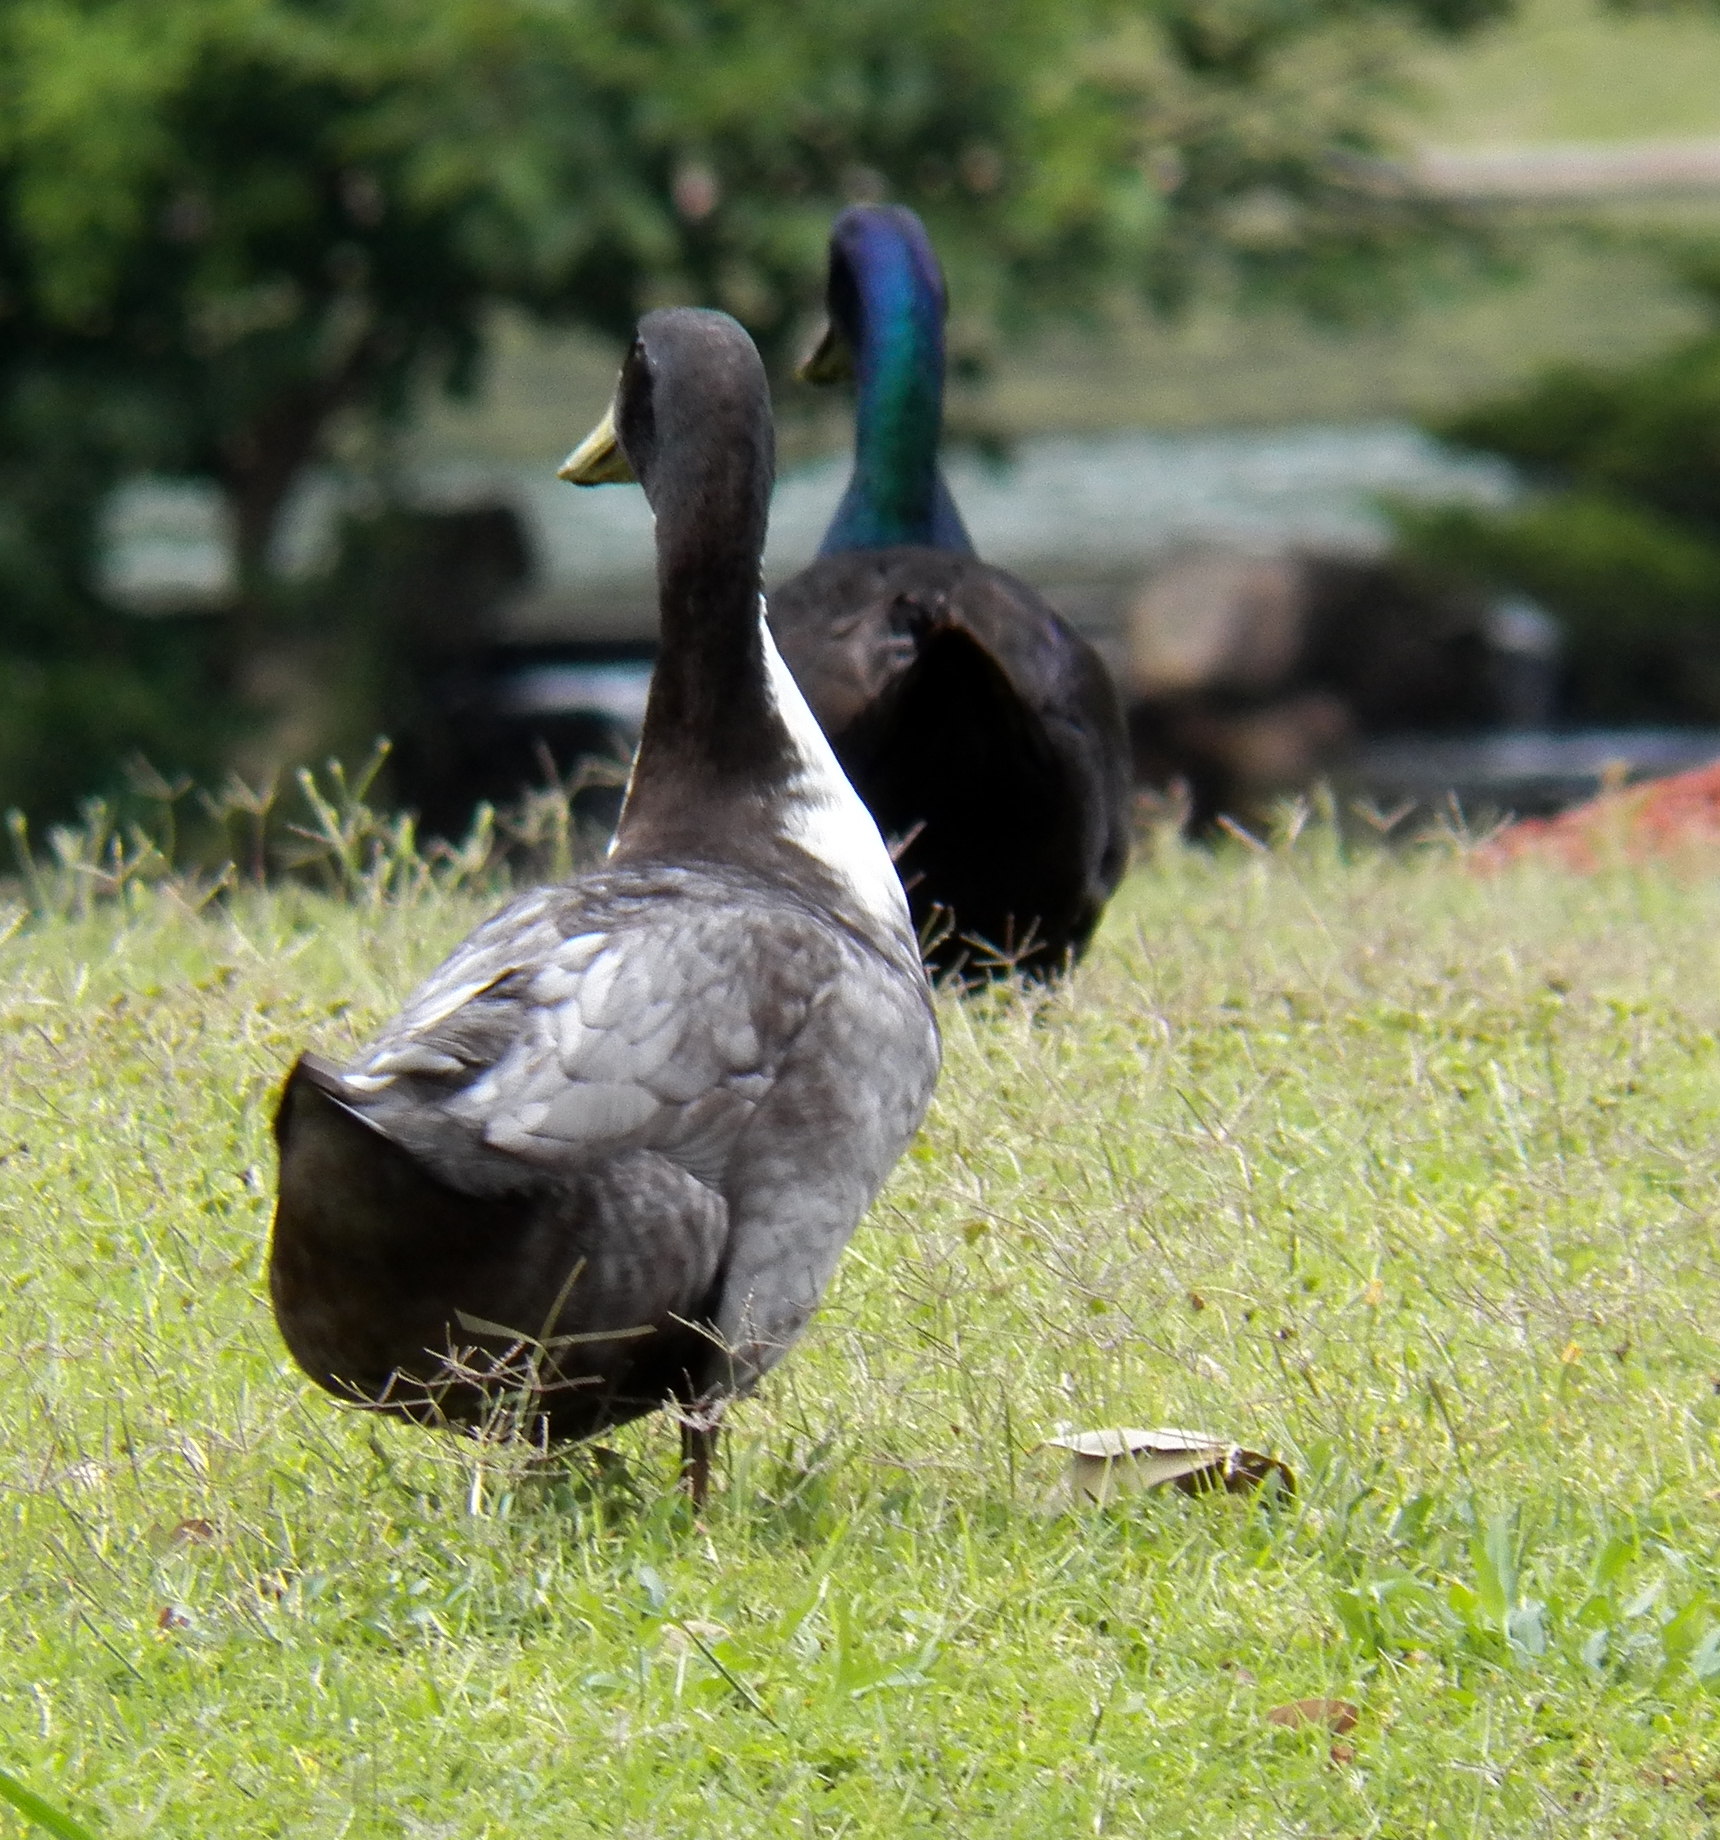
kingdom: Animalia
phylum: Chordata
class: Aves
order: Anseriformes
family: Anatidae
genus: Anas
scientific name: Anas platyrhynchos
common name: Mallard
